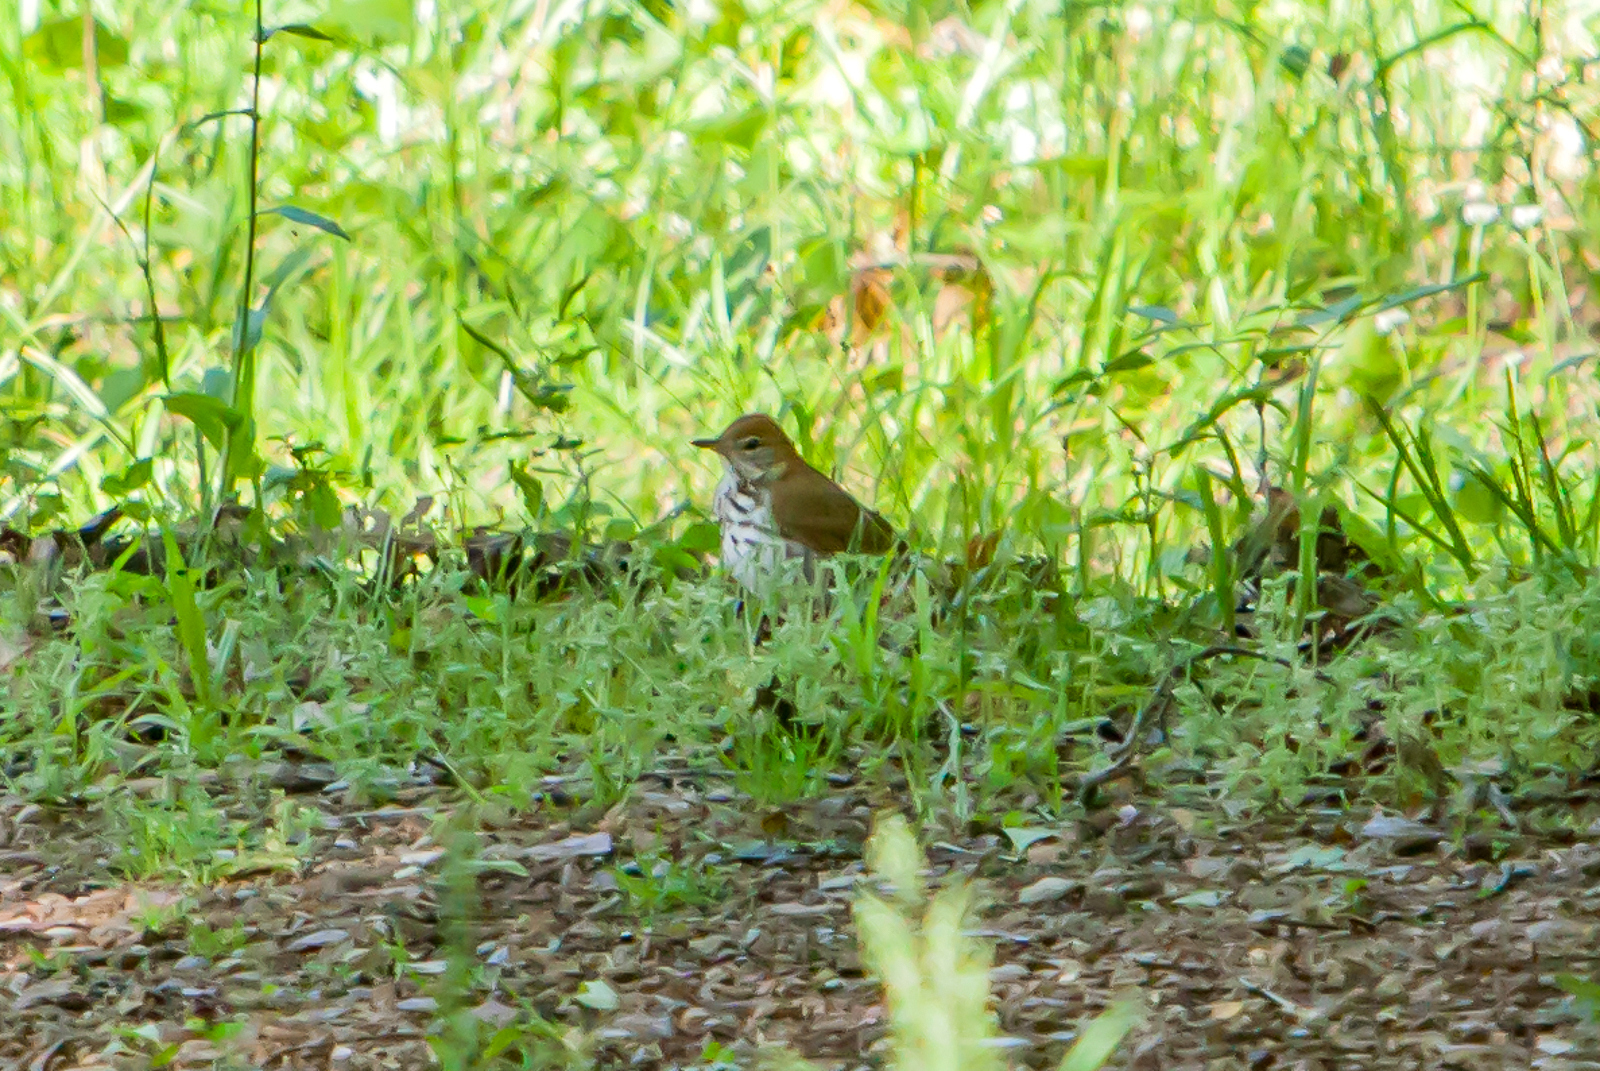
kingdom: Animalia
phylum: Chordata
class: Aves
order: Passeriformes
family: Turdidae
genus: Hylocichla
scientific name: Hylocichla mustelina
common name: Wood thrush
